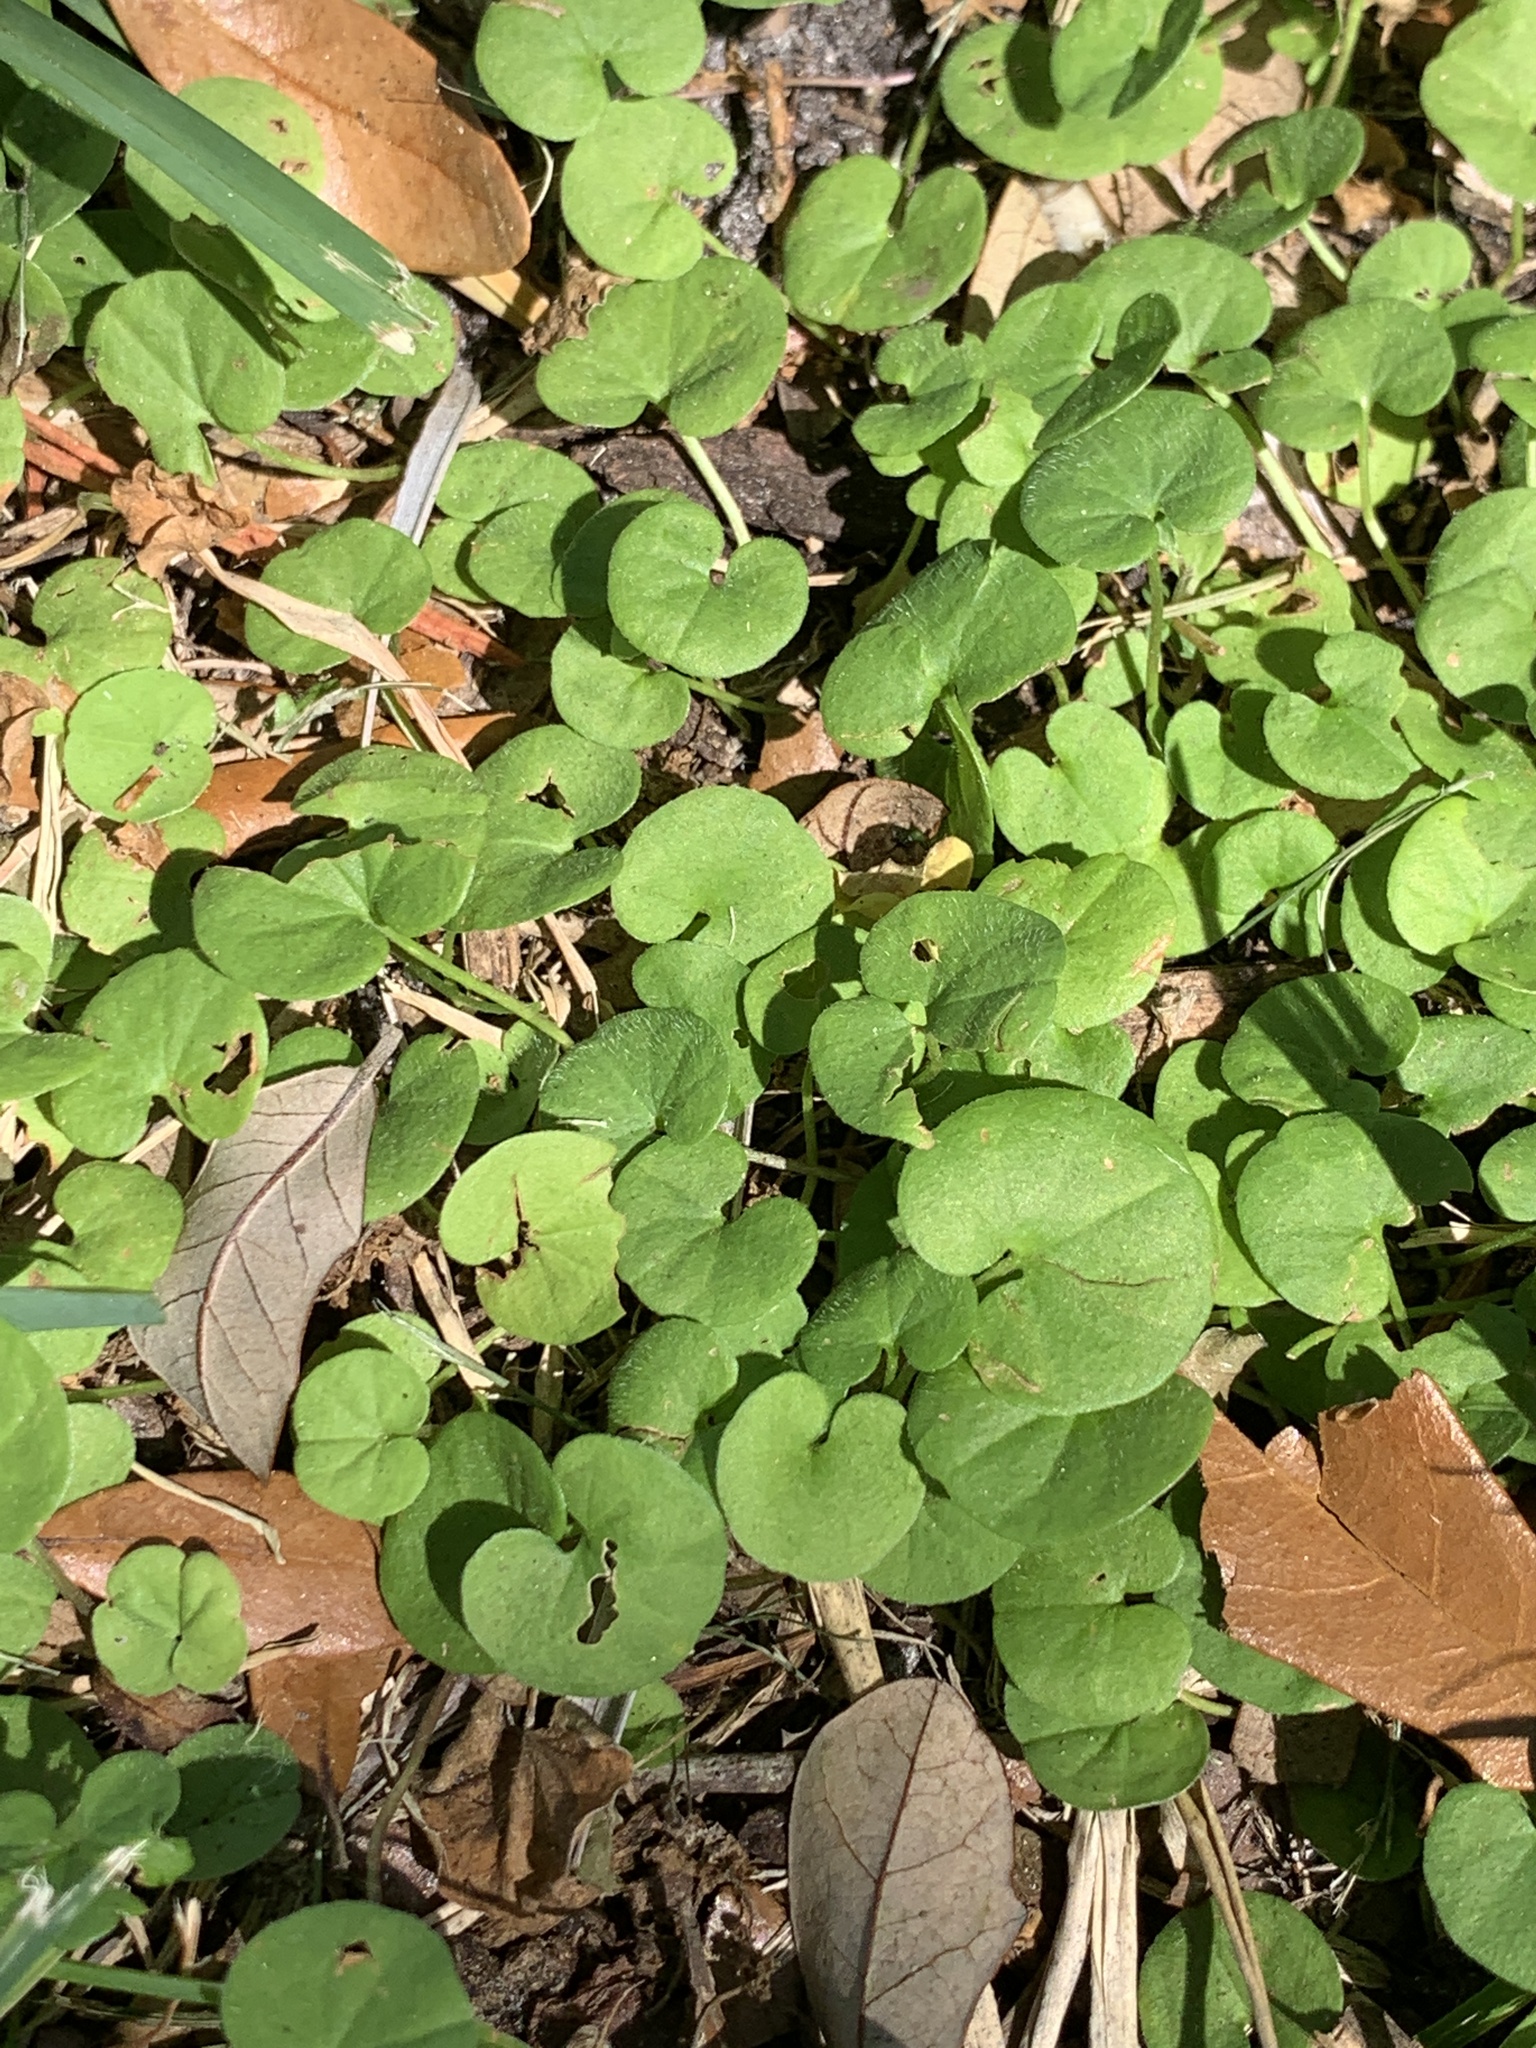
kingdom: Plantae
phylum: Tracheophyta
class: Magnoliopsida
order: Solanales
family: Convolvulaceae
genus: Dichondra
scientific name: Dichondra carolinensis
